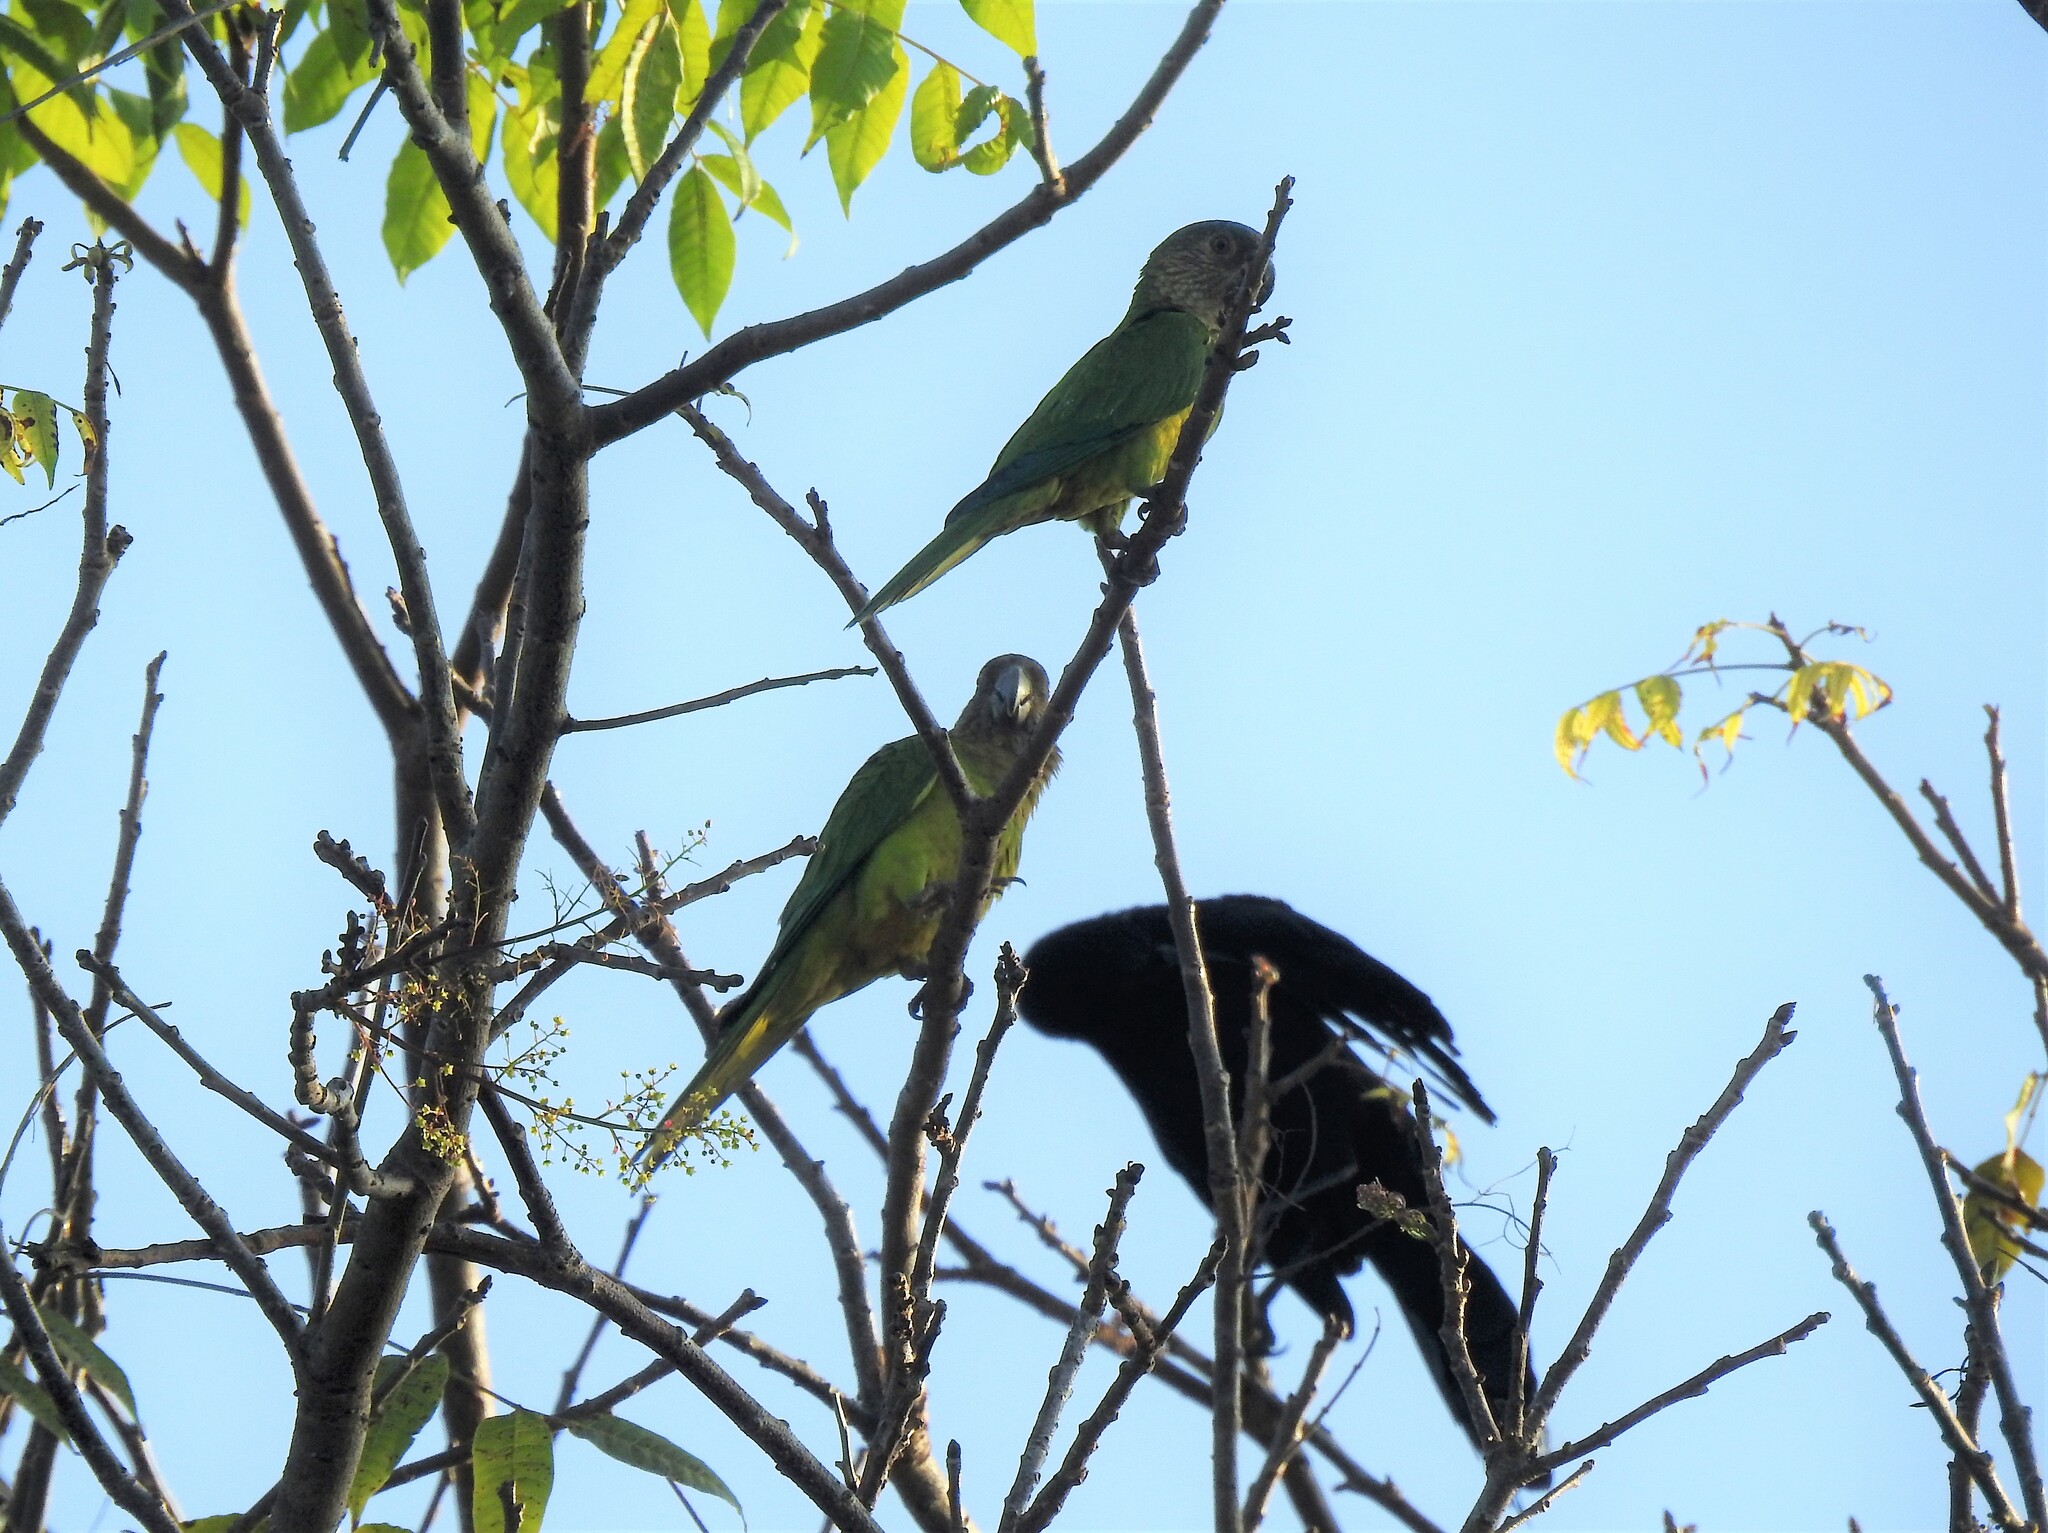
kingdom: Animalia
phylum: Chordata
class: Aves
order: Psittaciformes
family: Psittacidae
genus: Aratinga
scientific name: Aratinga pertinax
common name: Brown-throated parakeet
